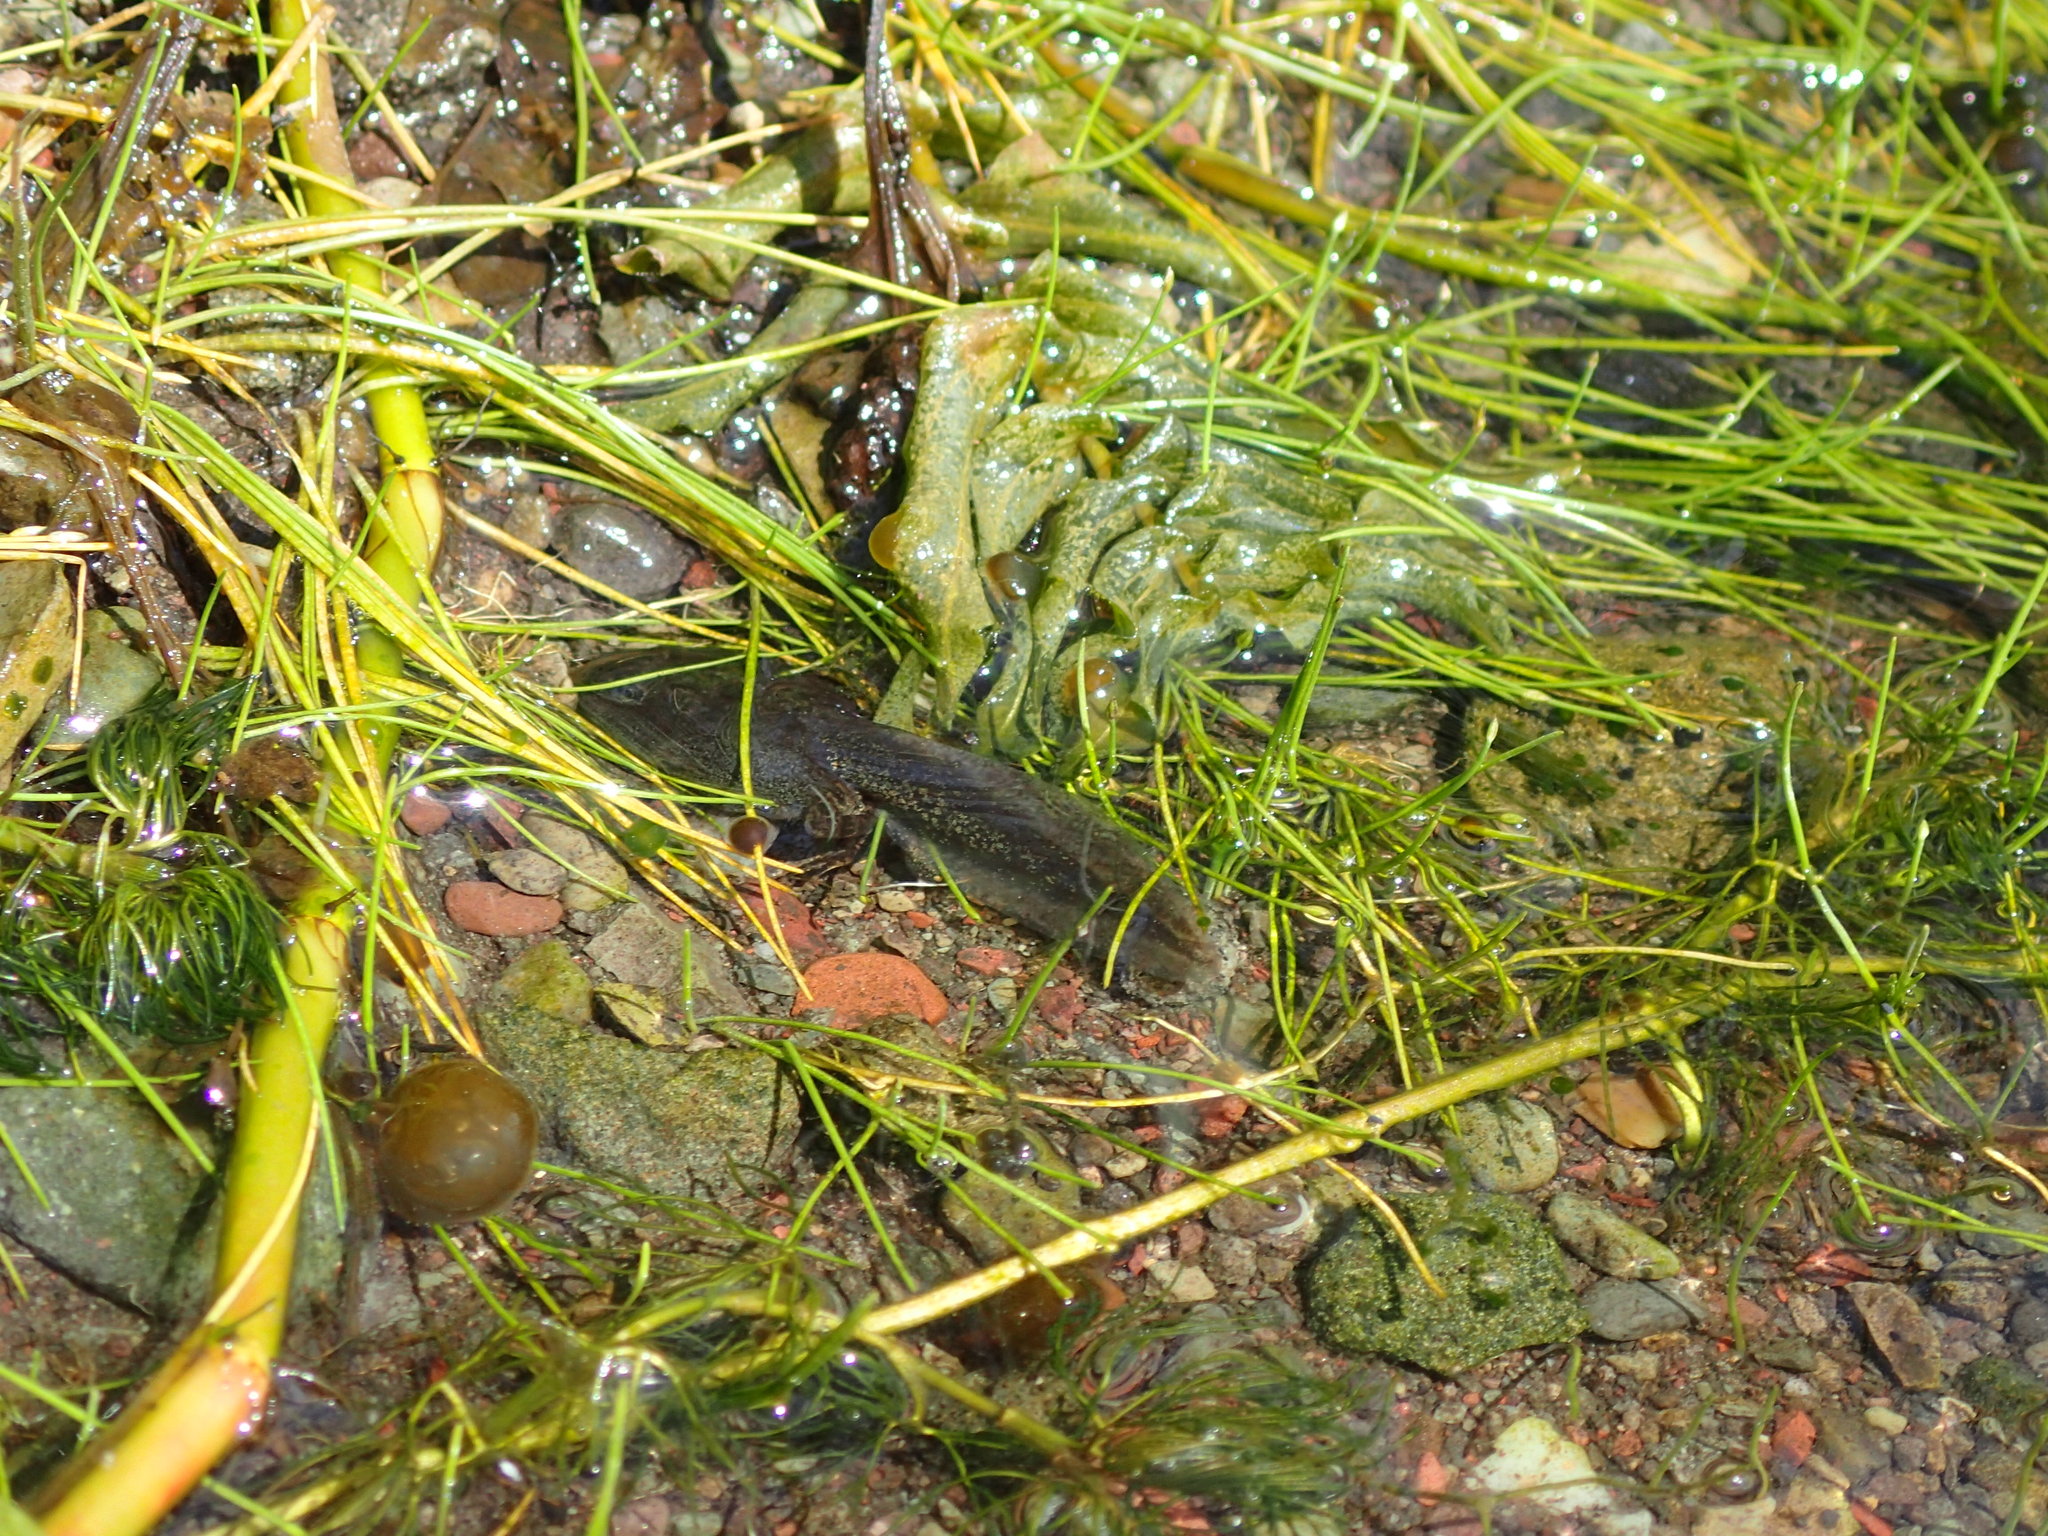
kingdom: Animalia
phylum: Chordata
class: Amphibia
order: Anura
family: Ranidae
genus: Rana
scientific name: Rana luteiventris
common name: Columbia spotted frog
